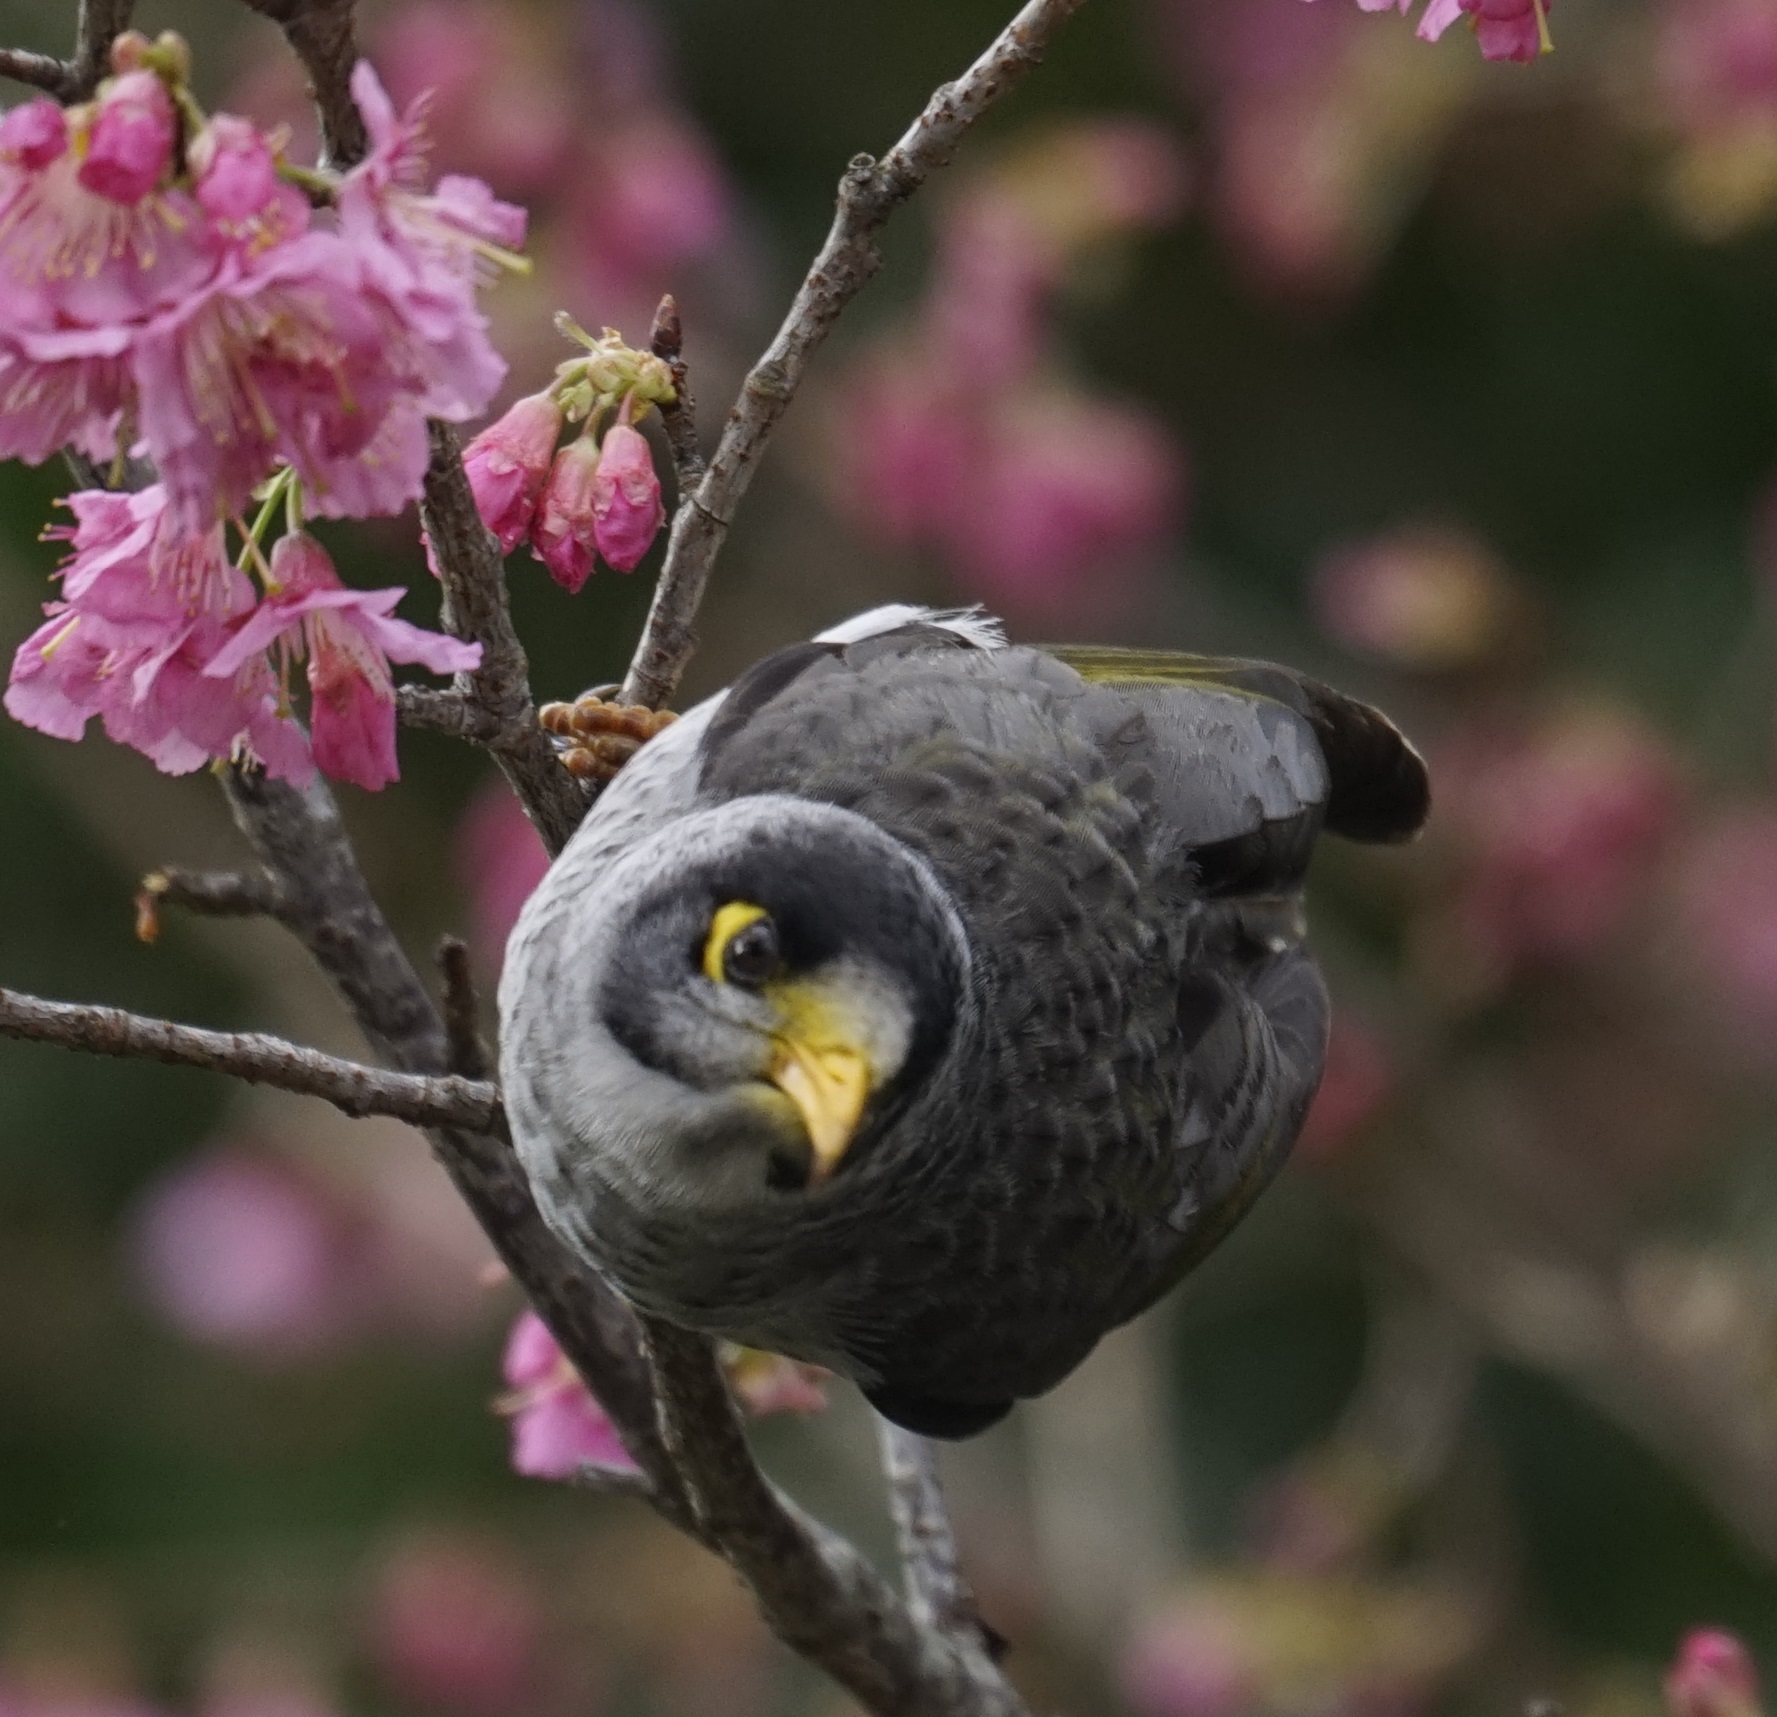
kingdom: Animalia
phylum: Chordata
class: Aves
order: Passeriformes
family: Meliphagidae
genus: Manorina
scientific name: Manorina melanocephala
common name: Noisy miner
